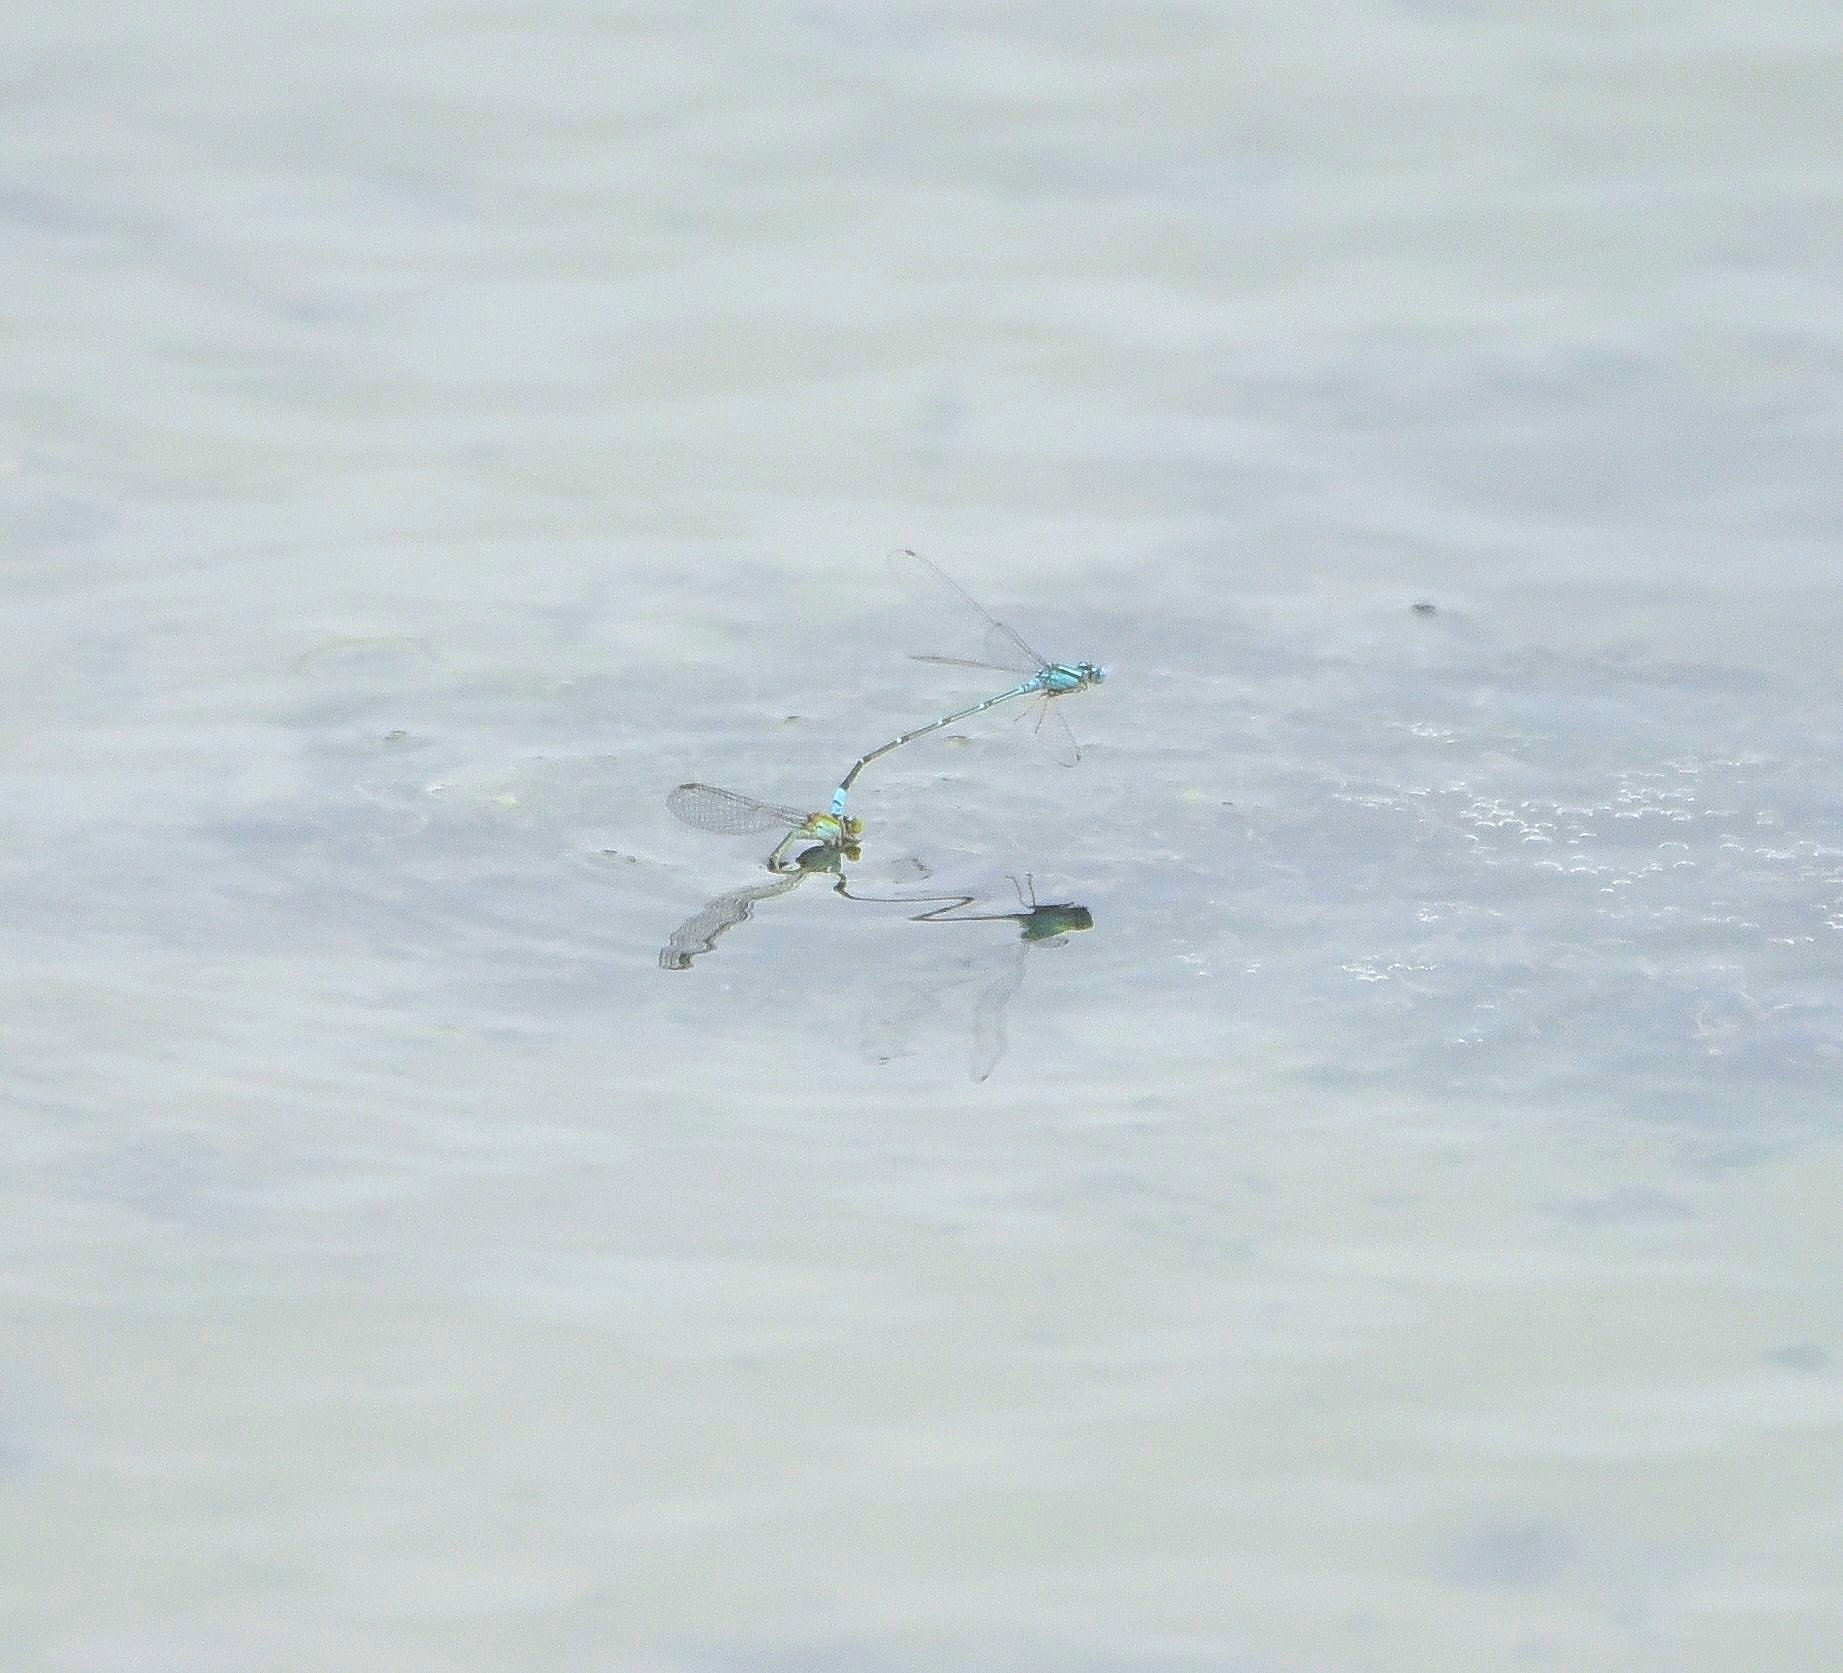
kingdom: Animalia
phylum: Arthropoda
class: Insecta
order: Odonata
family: Coenagrionidae
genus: Pseudagrion
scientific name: Pseudagrion microcephalum
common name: Blue riverdamsel
